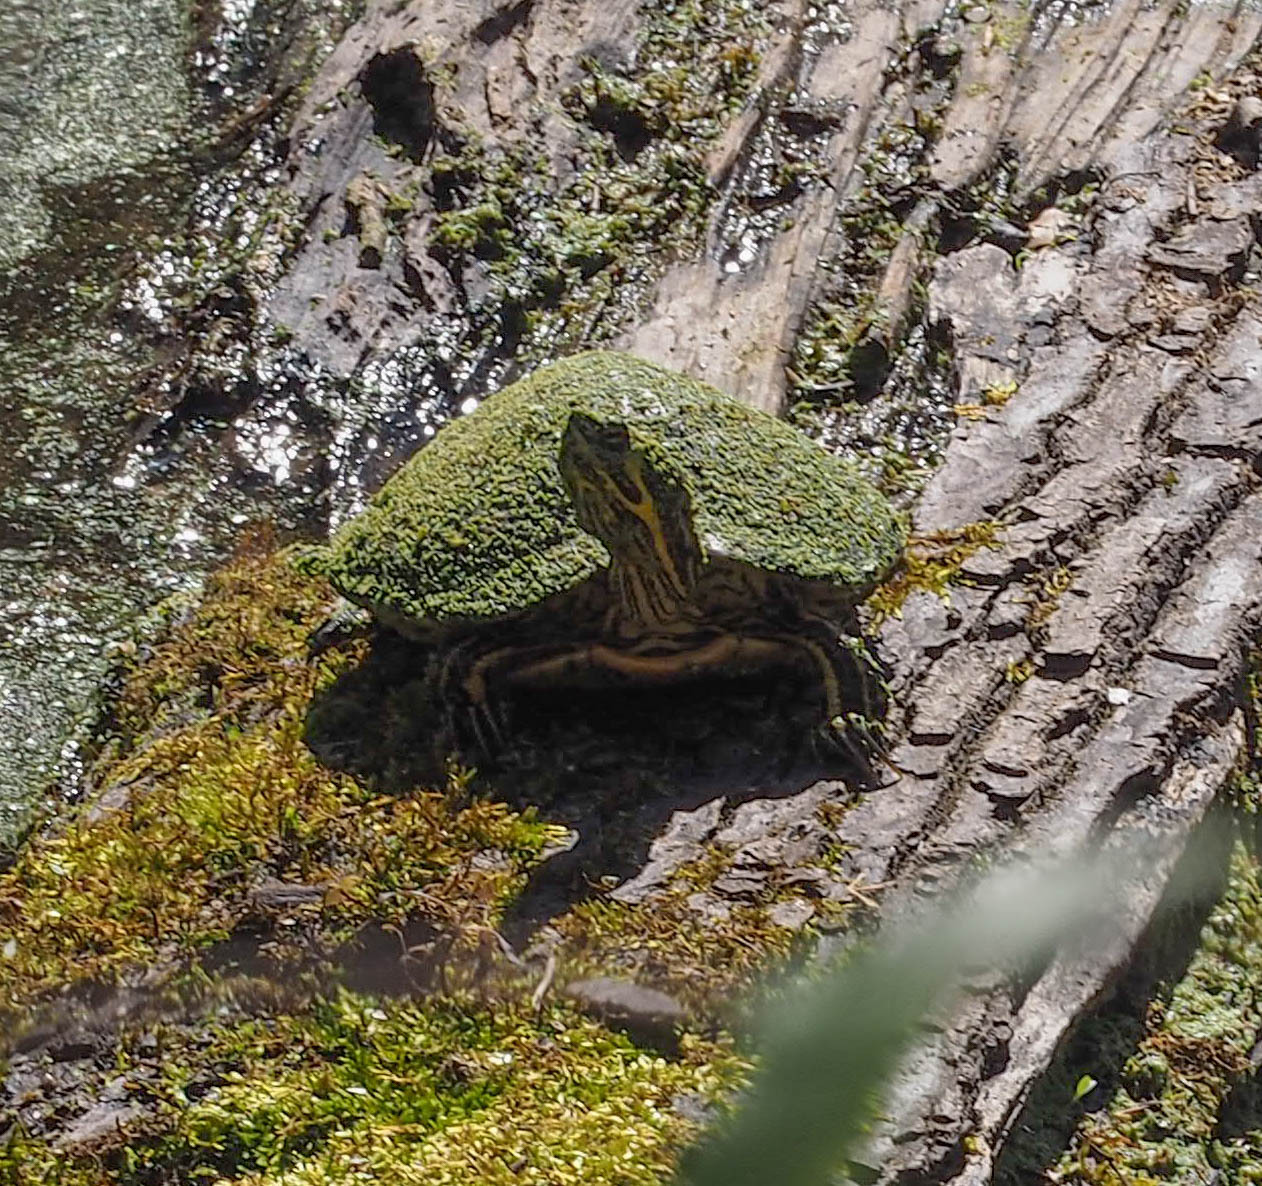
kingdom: Animalia
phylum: Chordata
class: Testudines
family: Emydidae
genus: Trachemys
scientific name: Trachemys scripta
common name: Slider
